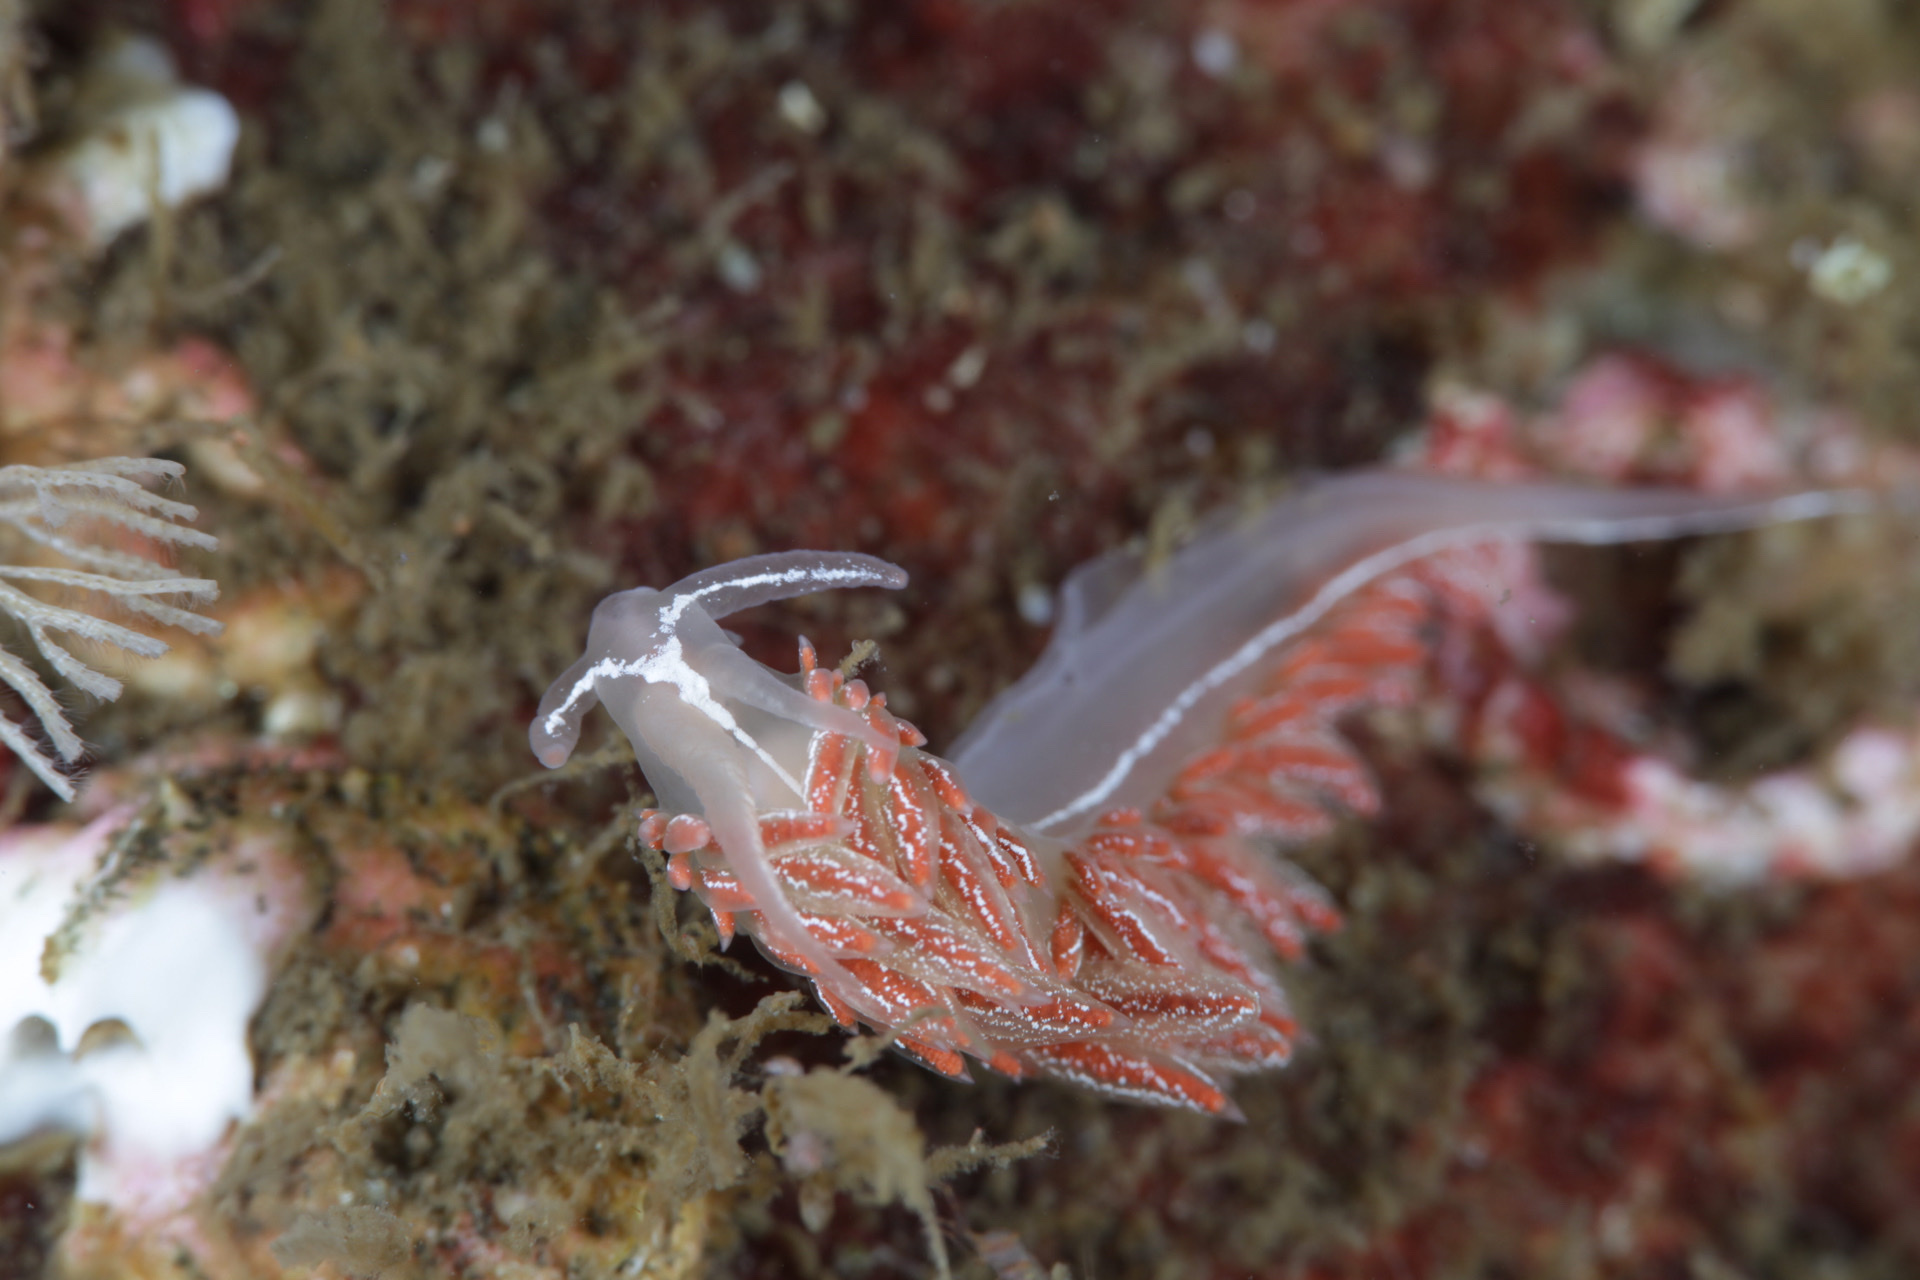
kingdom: Animalia
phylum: Mollusca
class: Gastropoda
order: Nudibranchia
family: Coryphellidae
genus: Coryphella
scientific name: Coryphella chriskaugei
